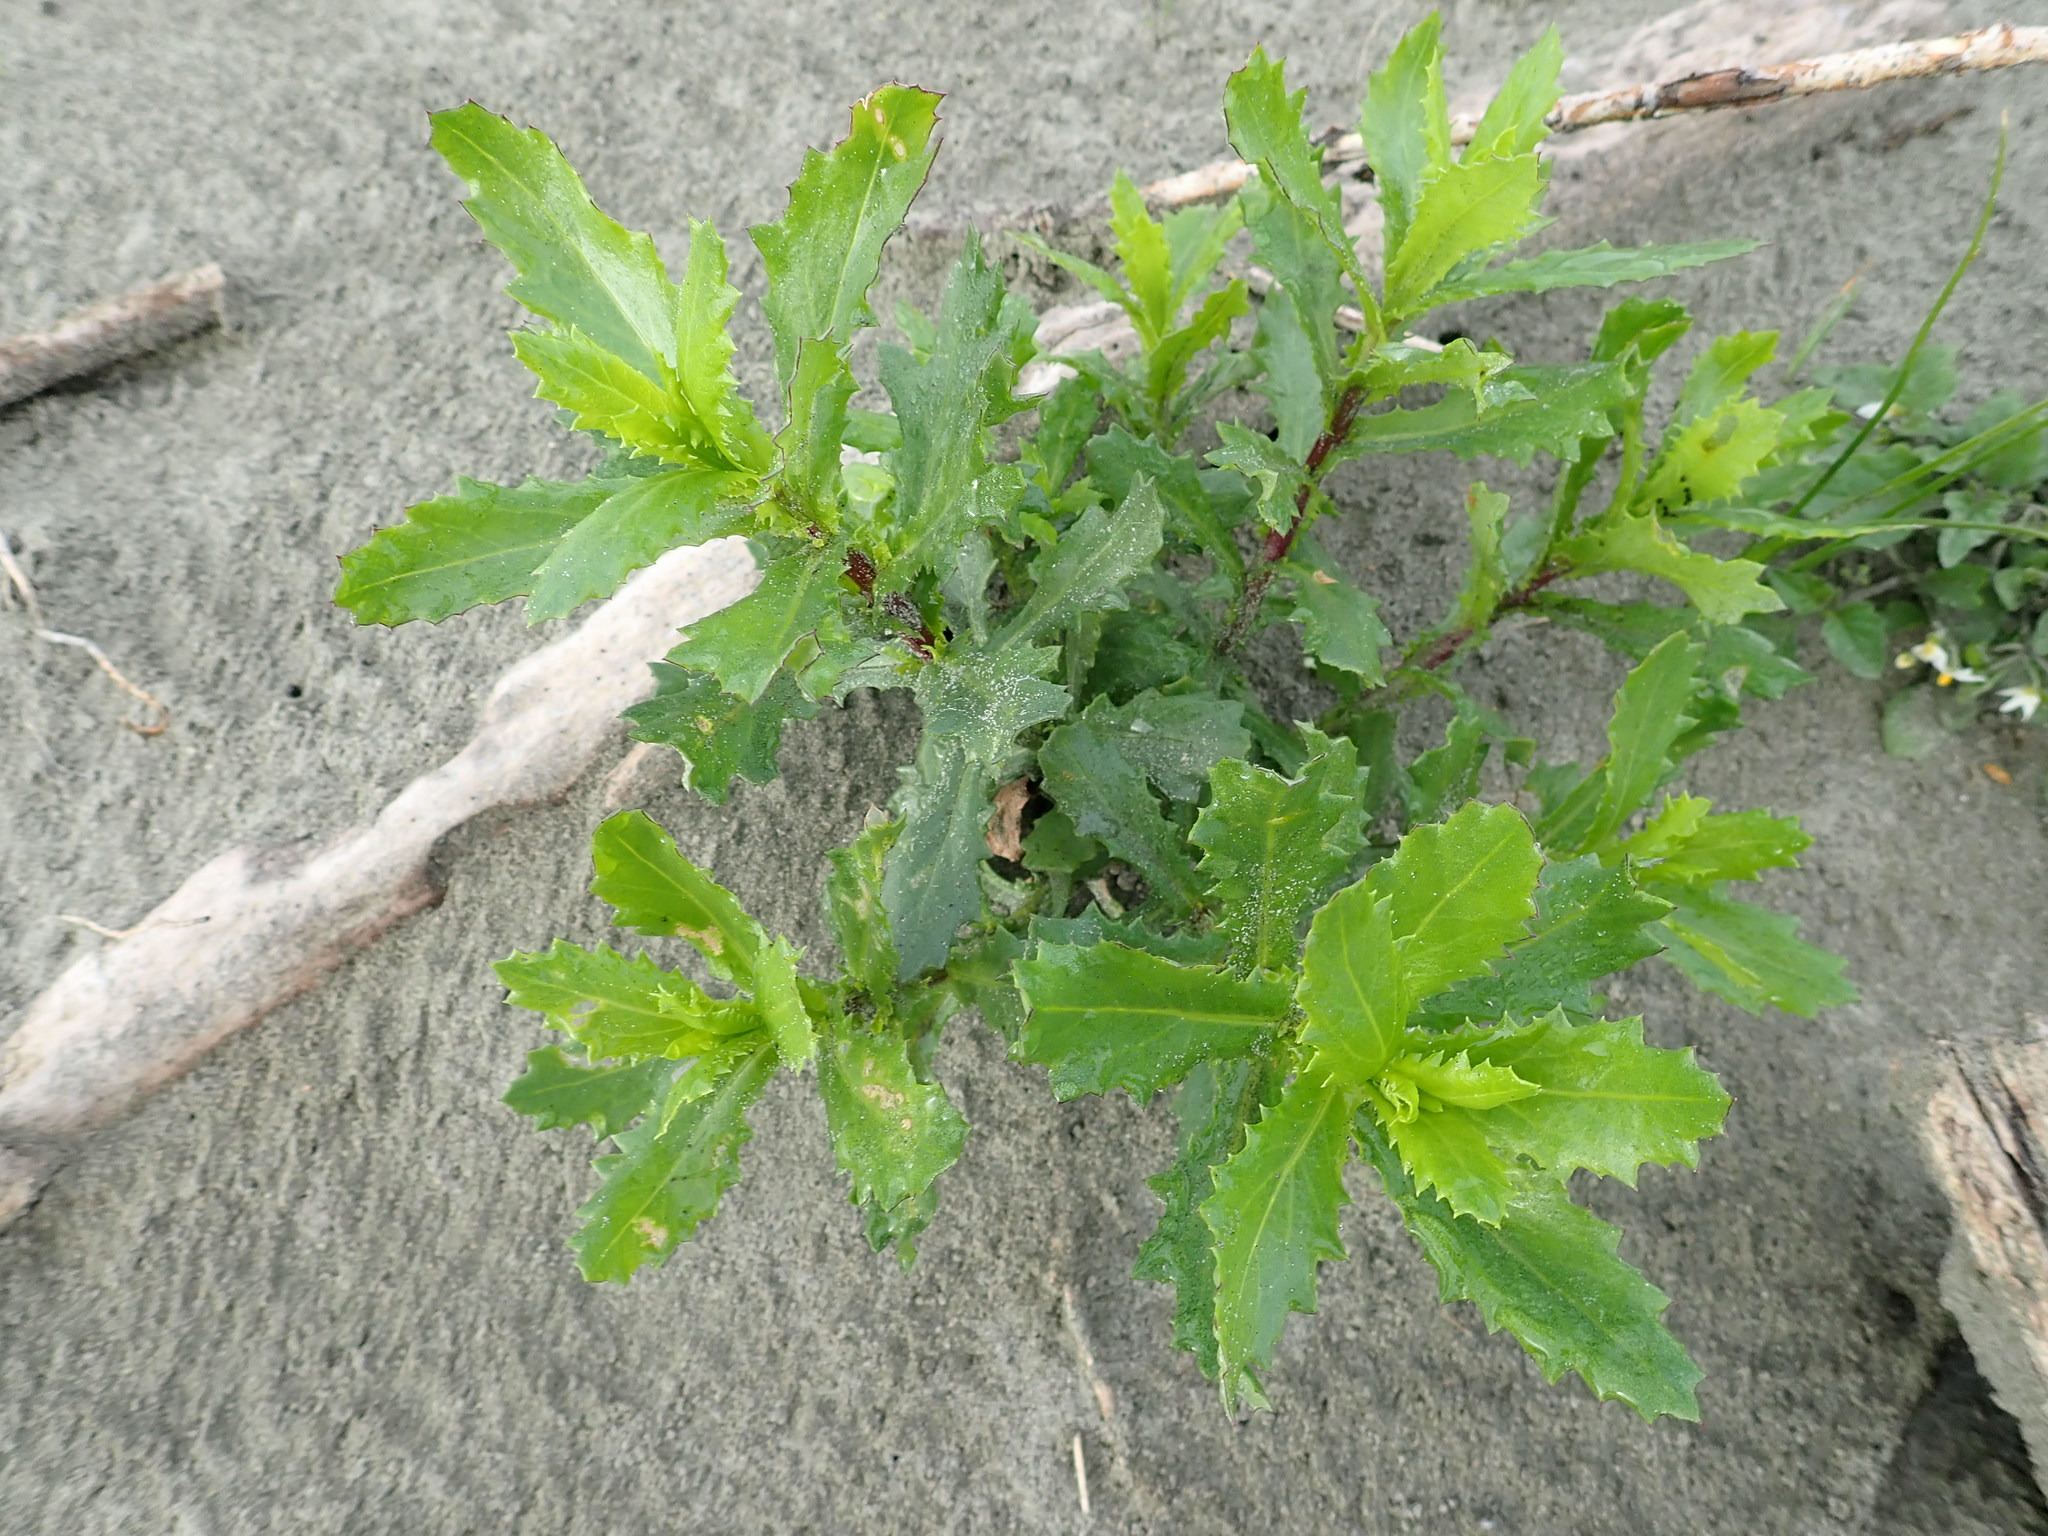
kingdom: Plantae
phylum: Tracheophyta
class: Magnoliopsida
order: Asterales
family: Asteraceae
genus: Senecio
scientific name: Senecio glastifolius
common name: Woad-leaved ragwort
